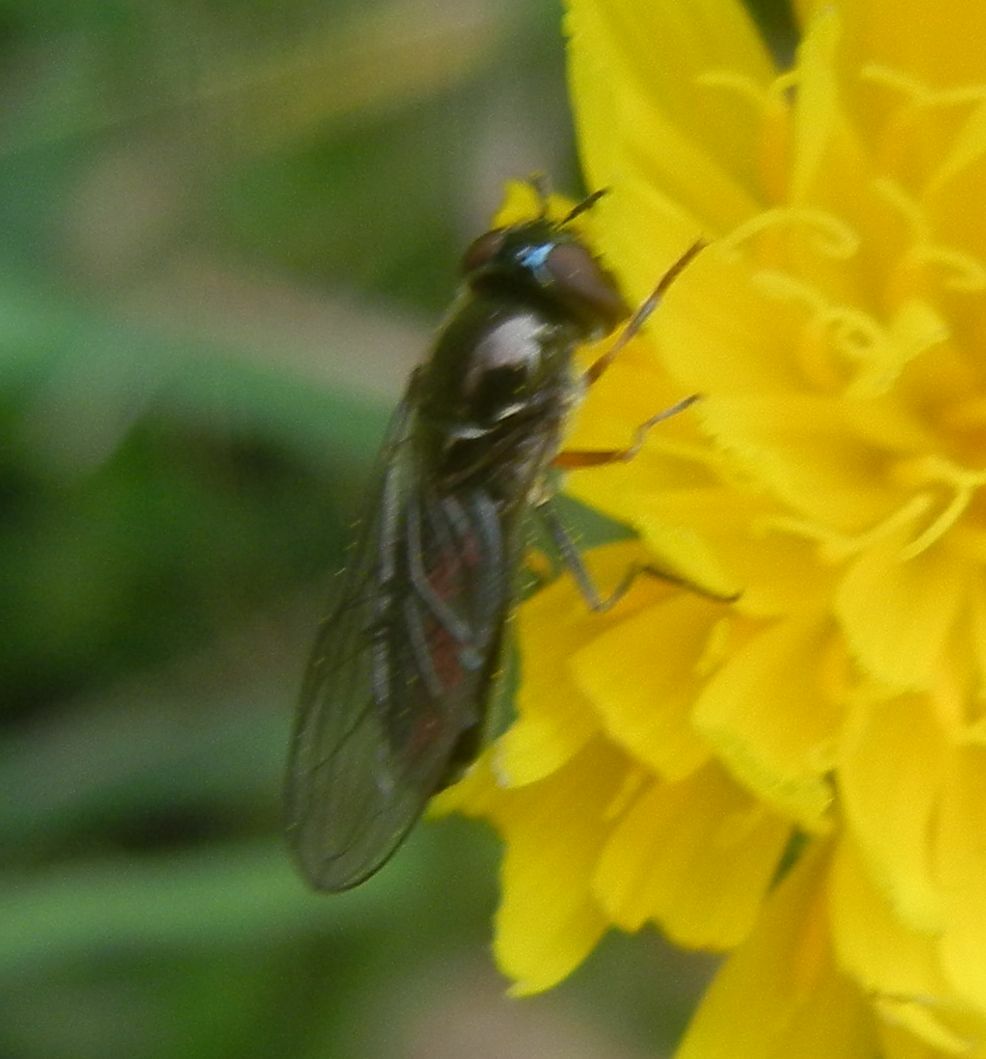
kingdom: Animalia
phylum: Arthropoda
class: Insecta
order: Diptera
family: Syrphidae
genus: Platycheirus
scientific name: Platycheirus
